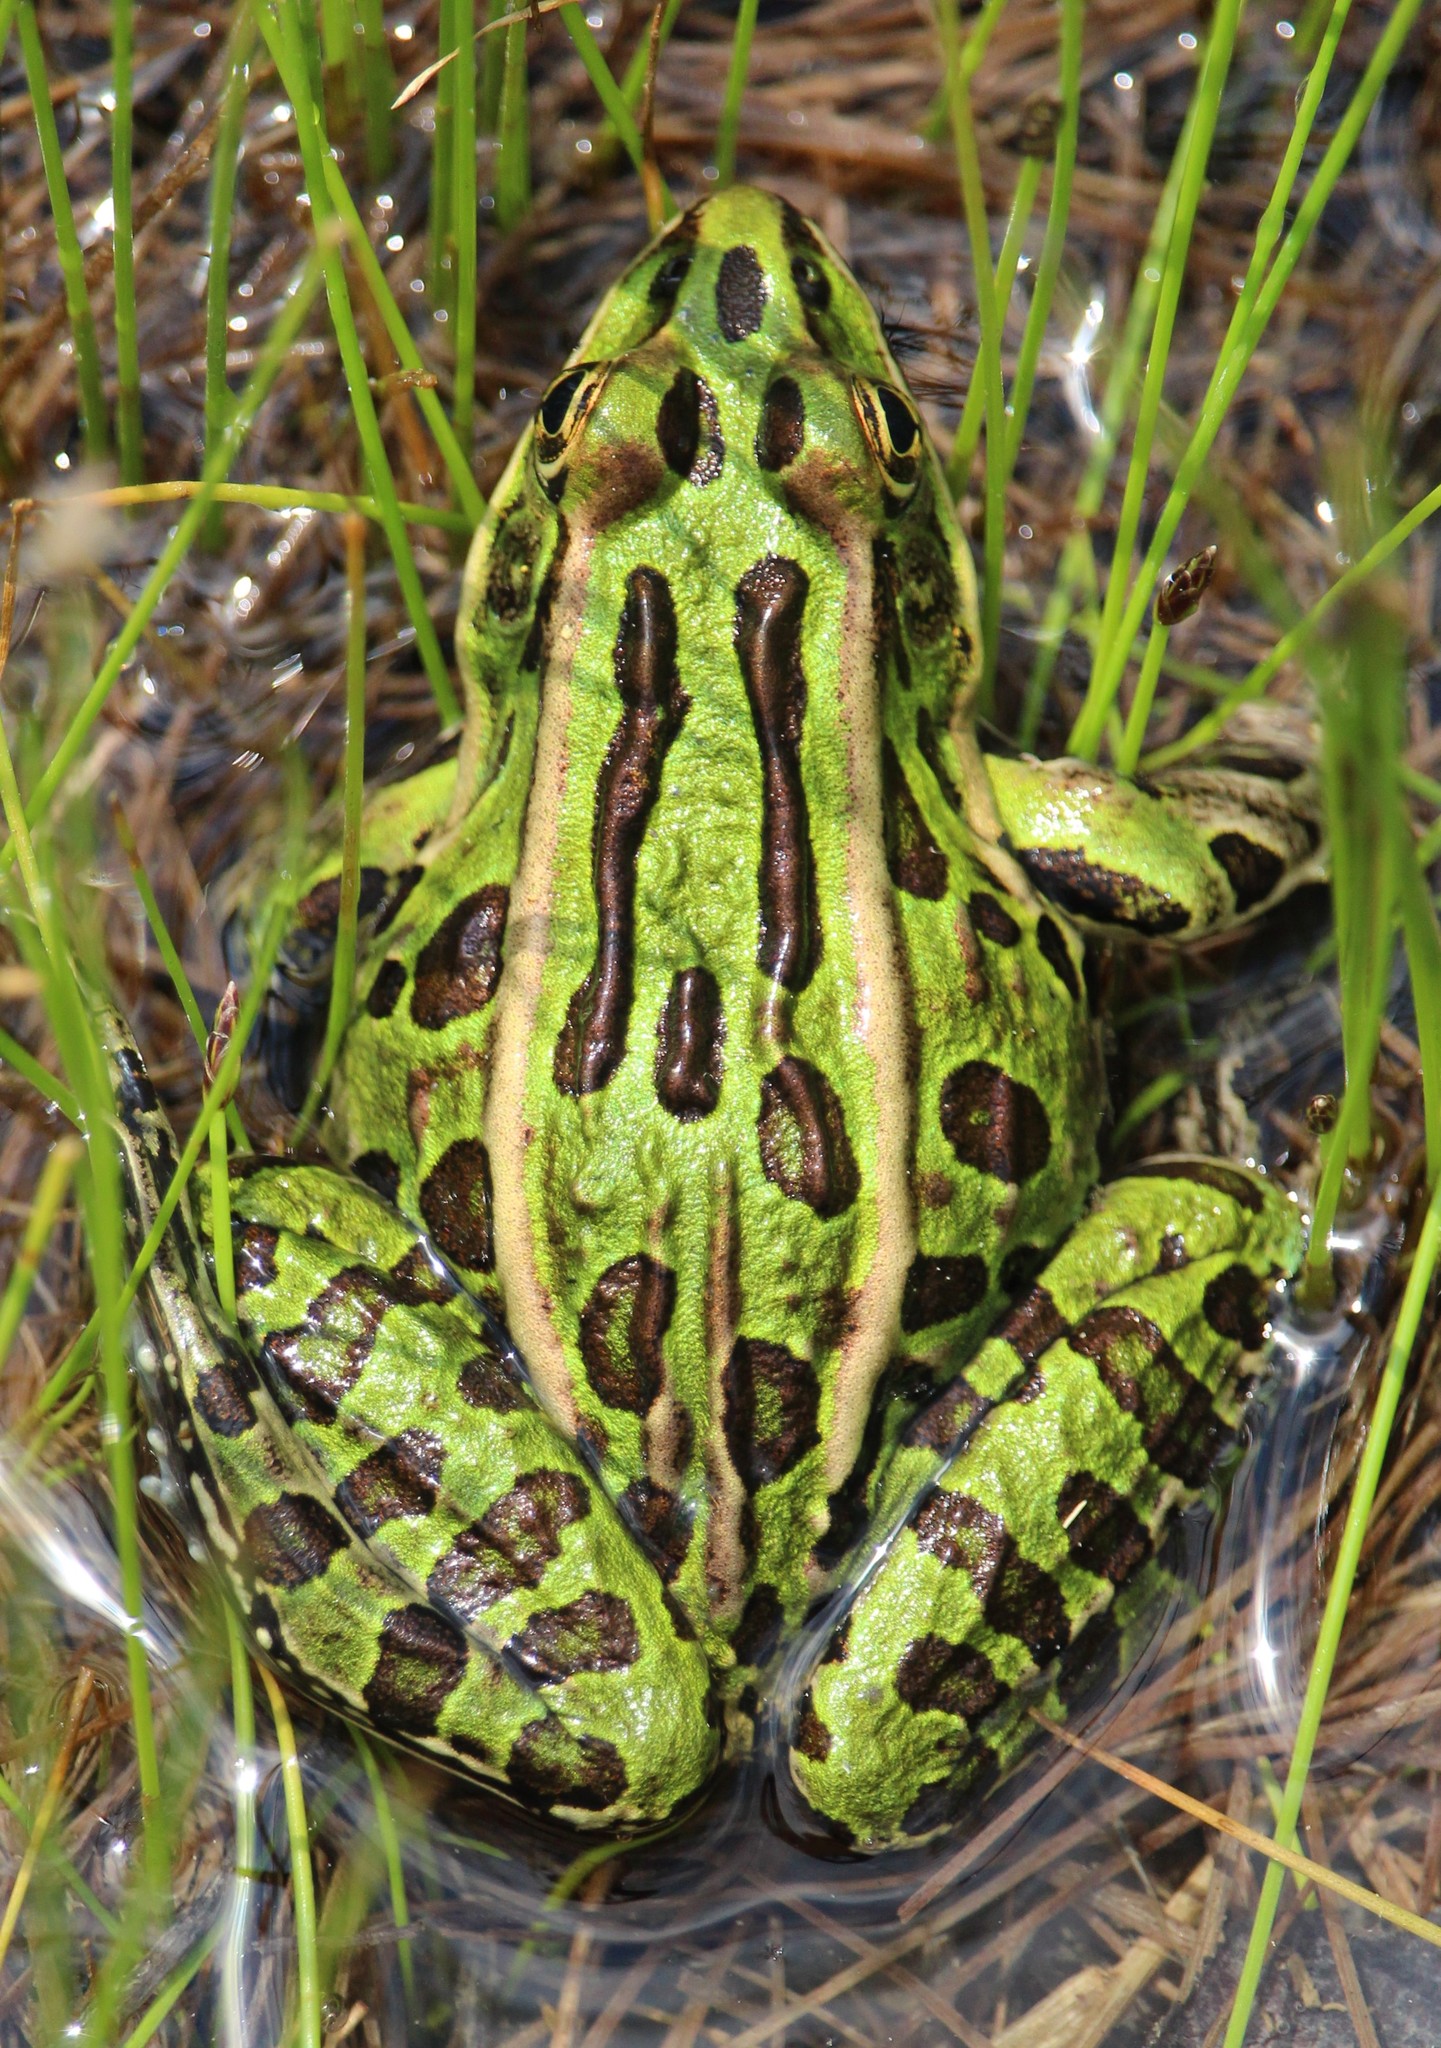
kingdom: Animalia
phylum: Chordata
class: Amphibia
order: Anura
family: Ranidae
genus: Lithobates
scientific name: Lithobates pipiens
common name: Northern leopard frog
